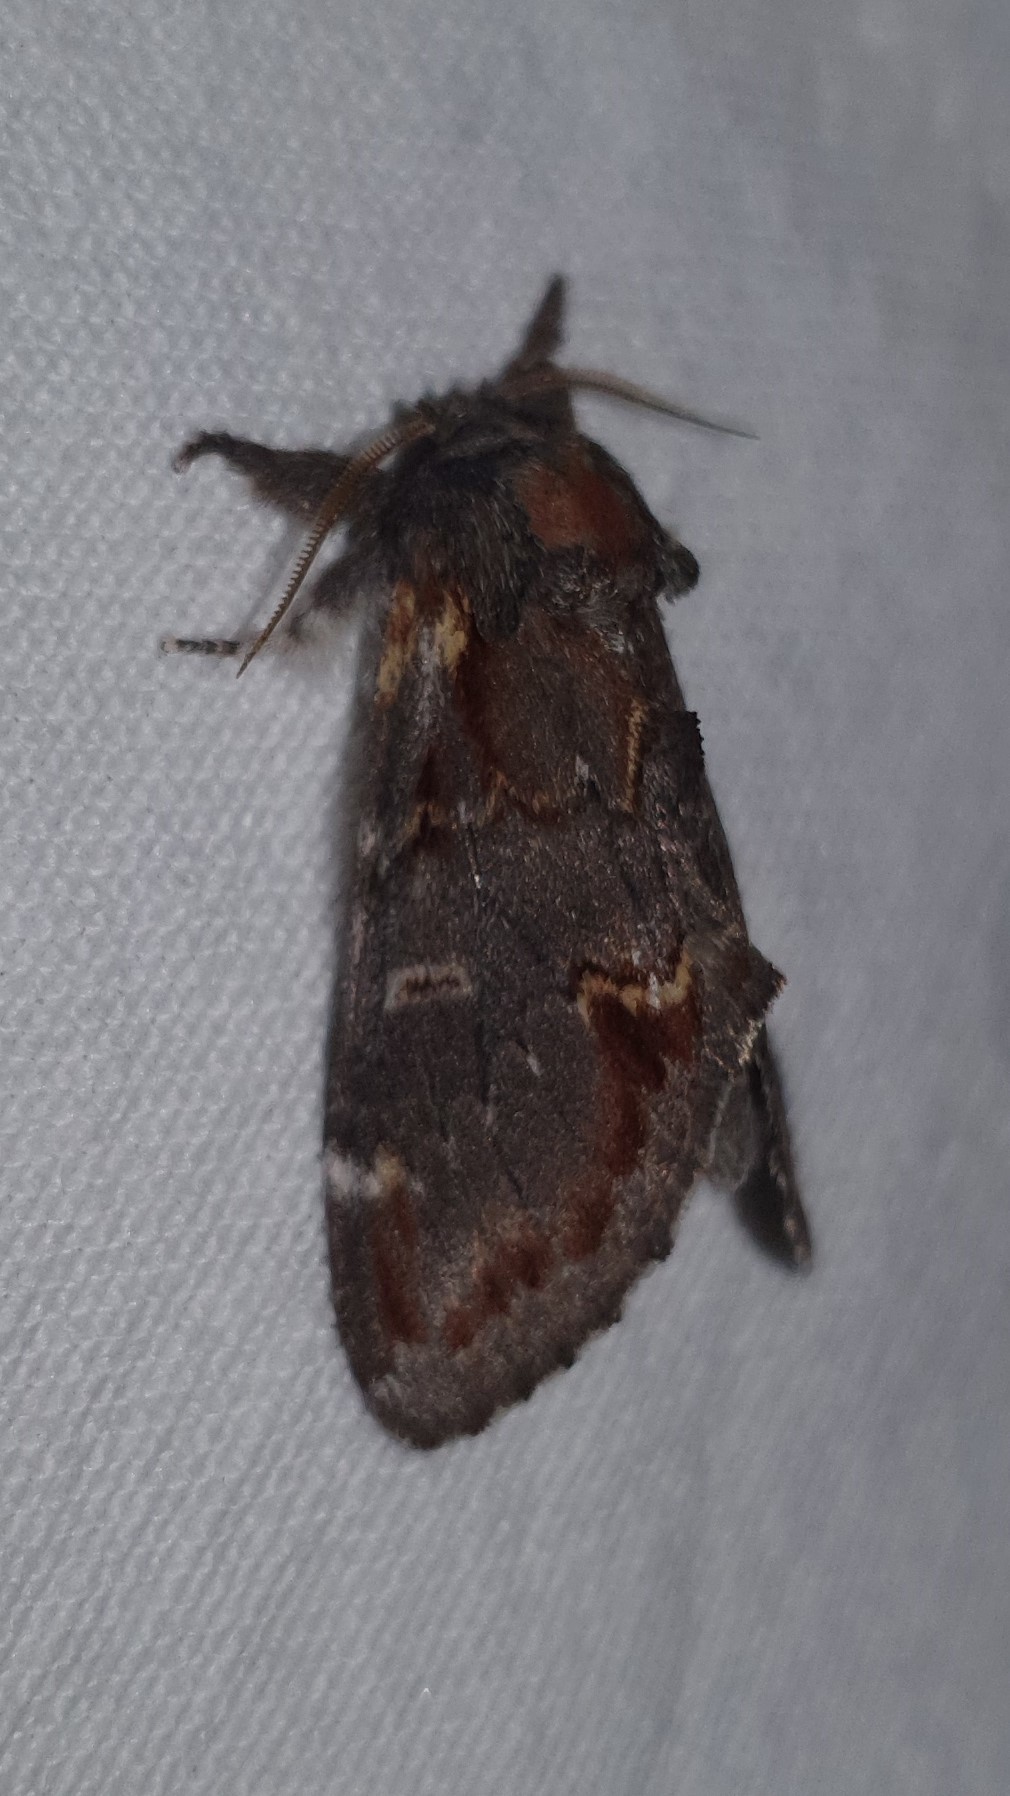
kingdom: Animalia
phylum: Arthropoda
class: Insecta
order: Lepidoptera
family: Notodontidae
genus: Notodonta
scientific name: Notodonta dromedarius
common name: Iron prominent
